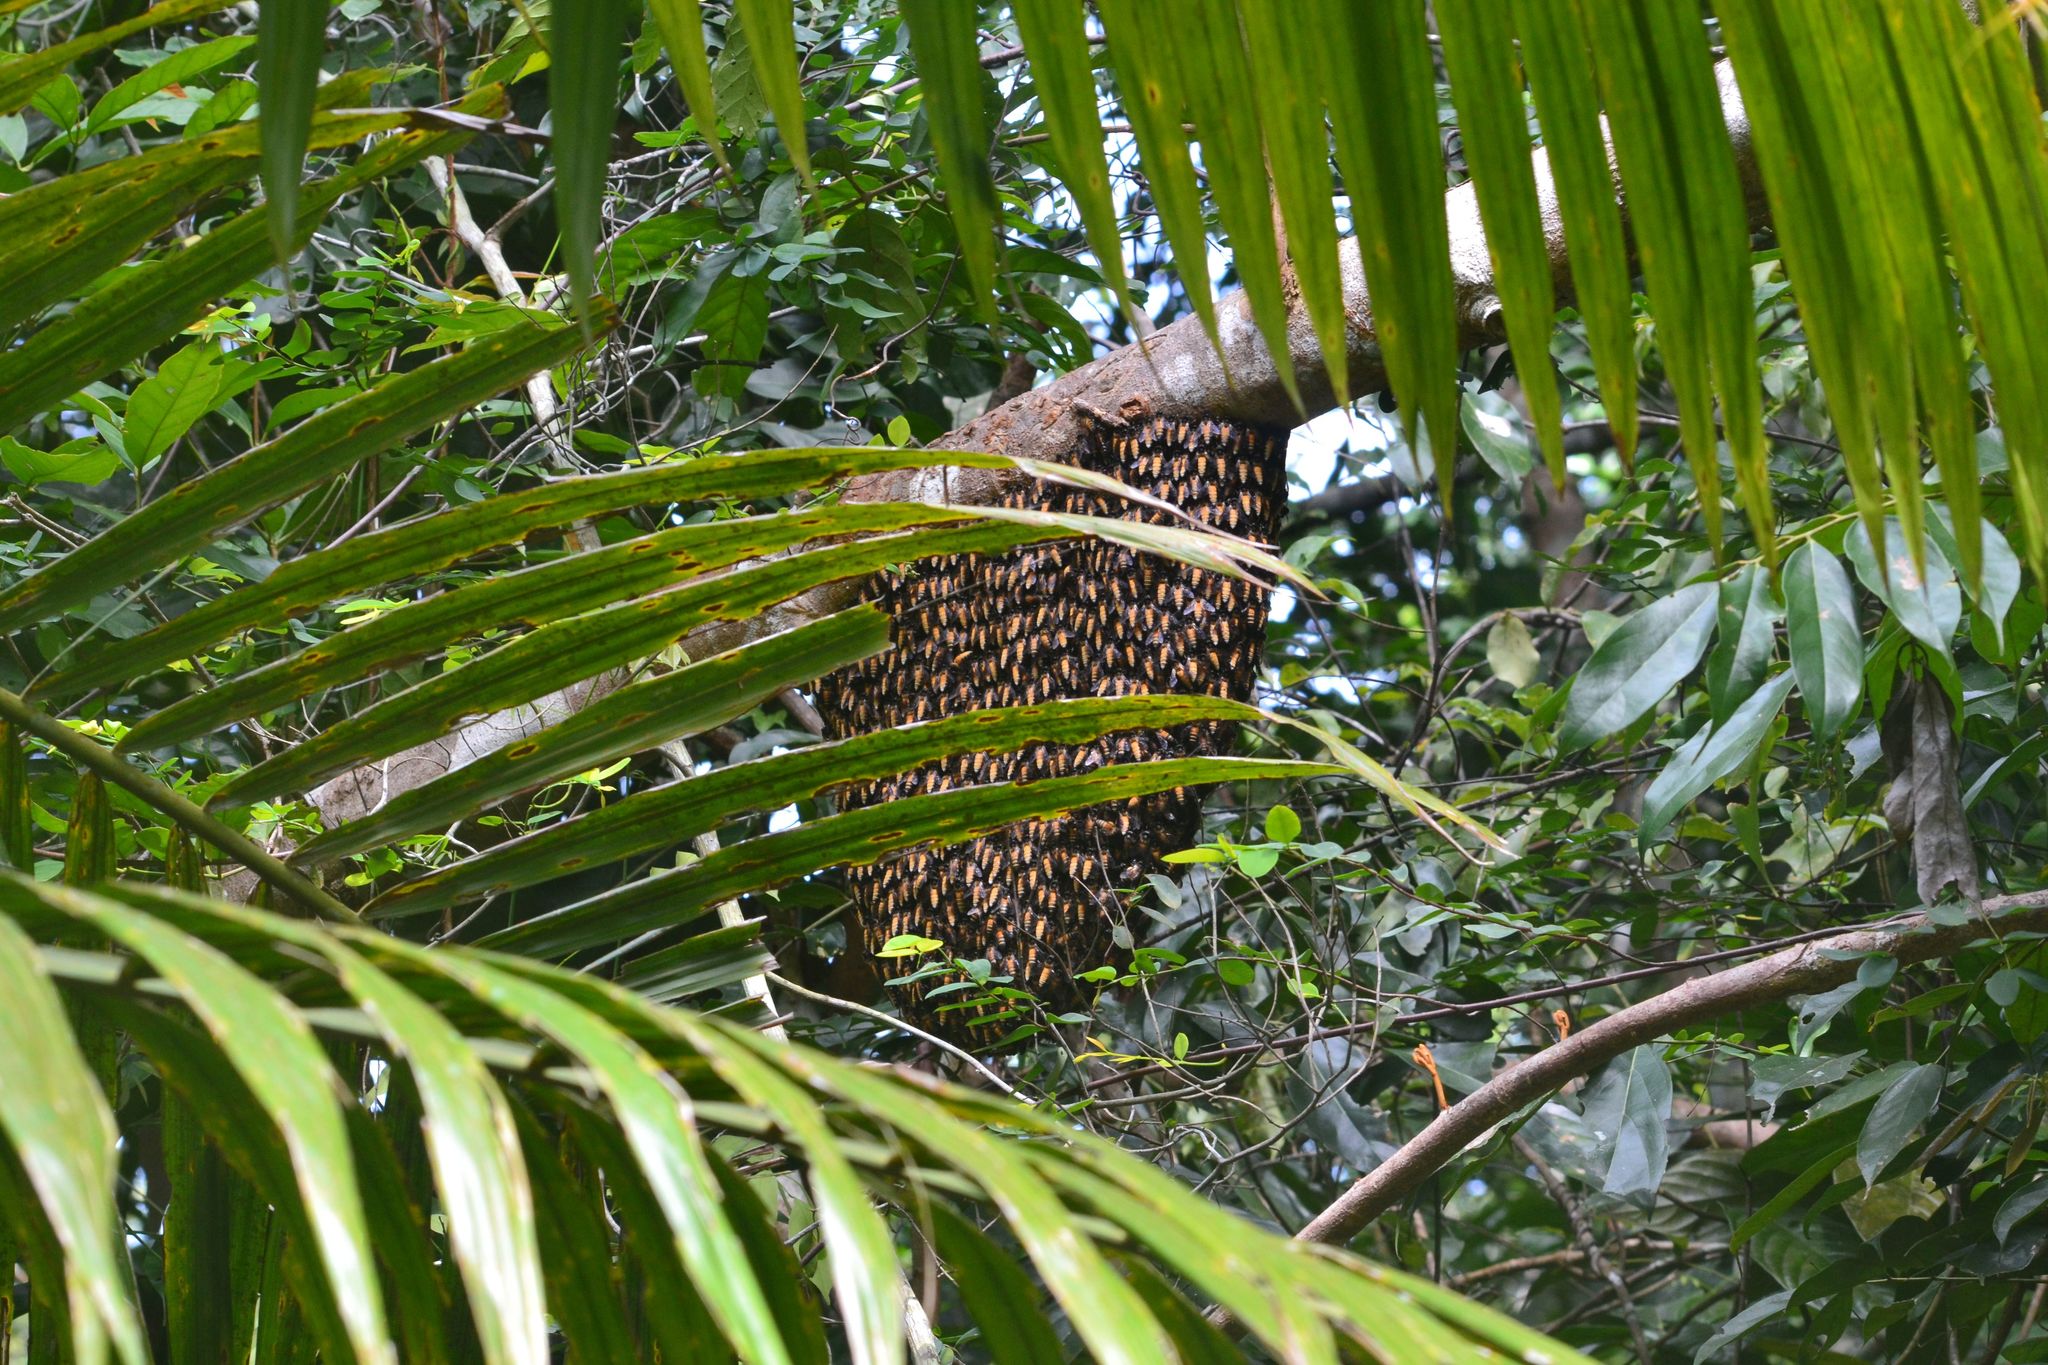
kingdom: Animalia
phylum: Arthropoda
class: Insecta
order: Hymenoptera
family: Apidae
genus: Apis
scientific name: Apis dorsata
